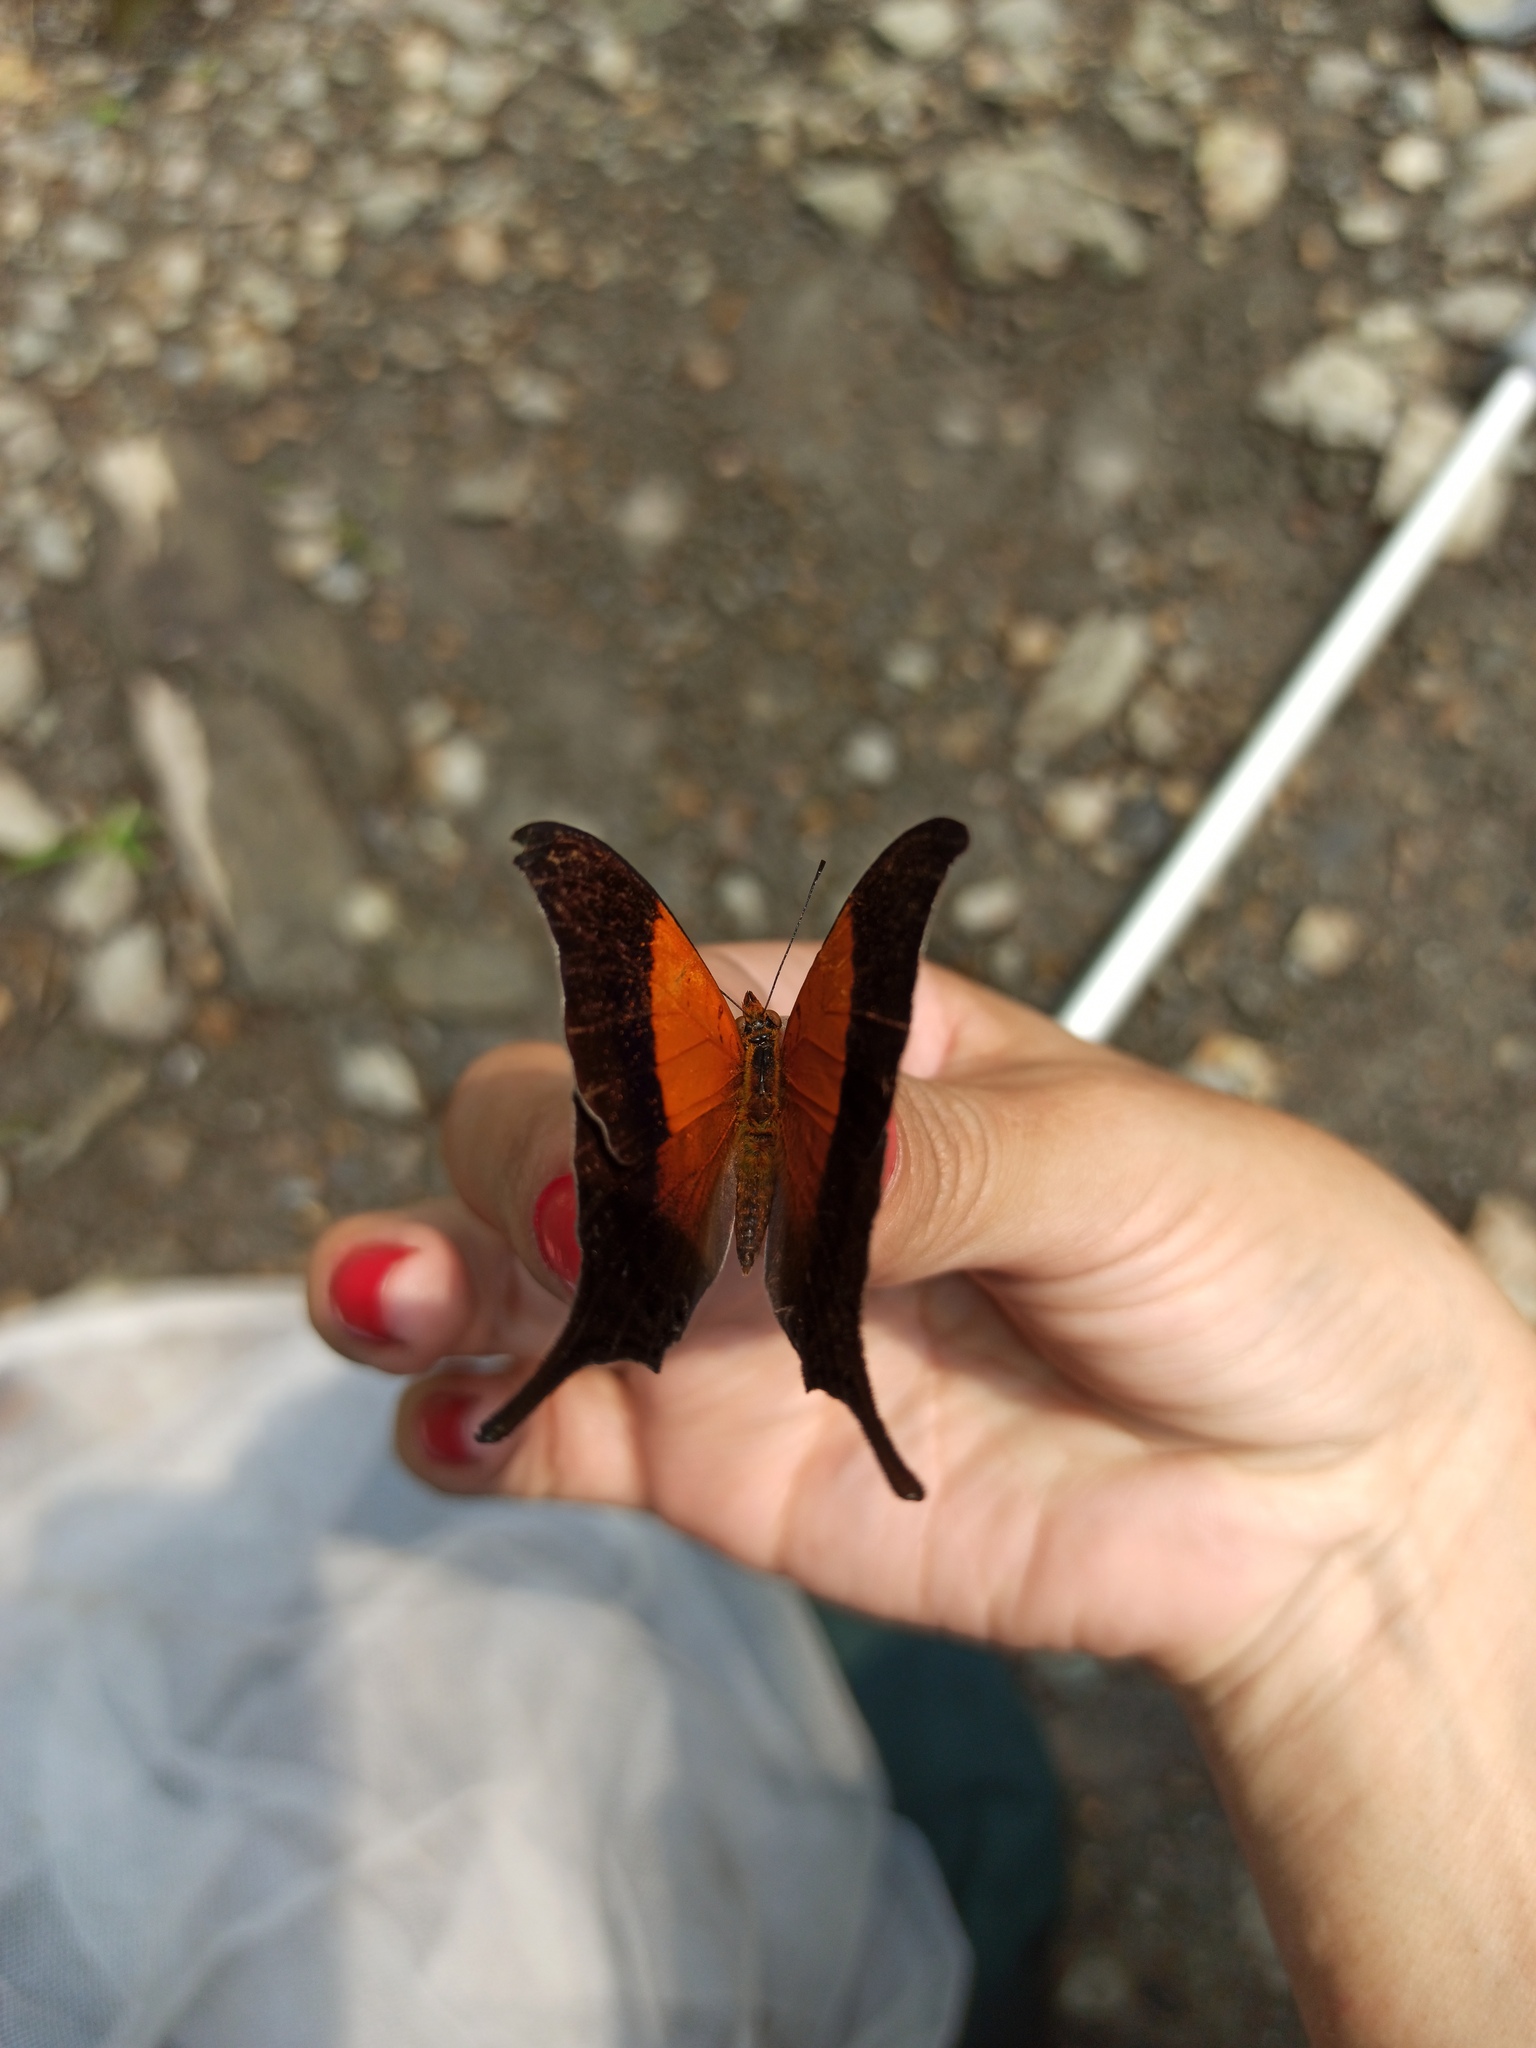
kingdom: Animalia
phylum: Arthropoda
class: Insecta
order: Lepidoptera
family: Nymphalidae
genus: Marpesia
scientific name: Marpesia furcula
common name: Sunset daggerwing
